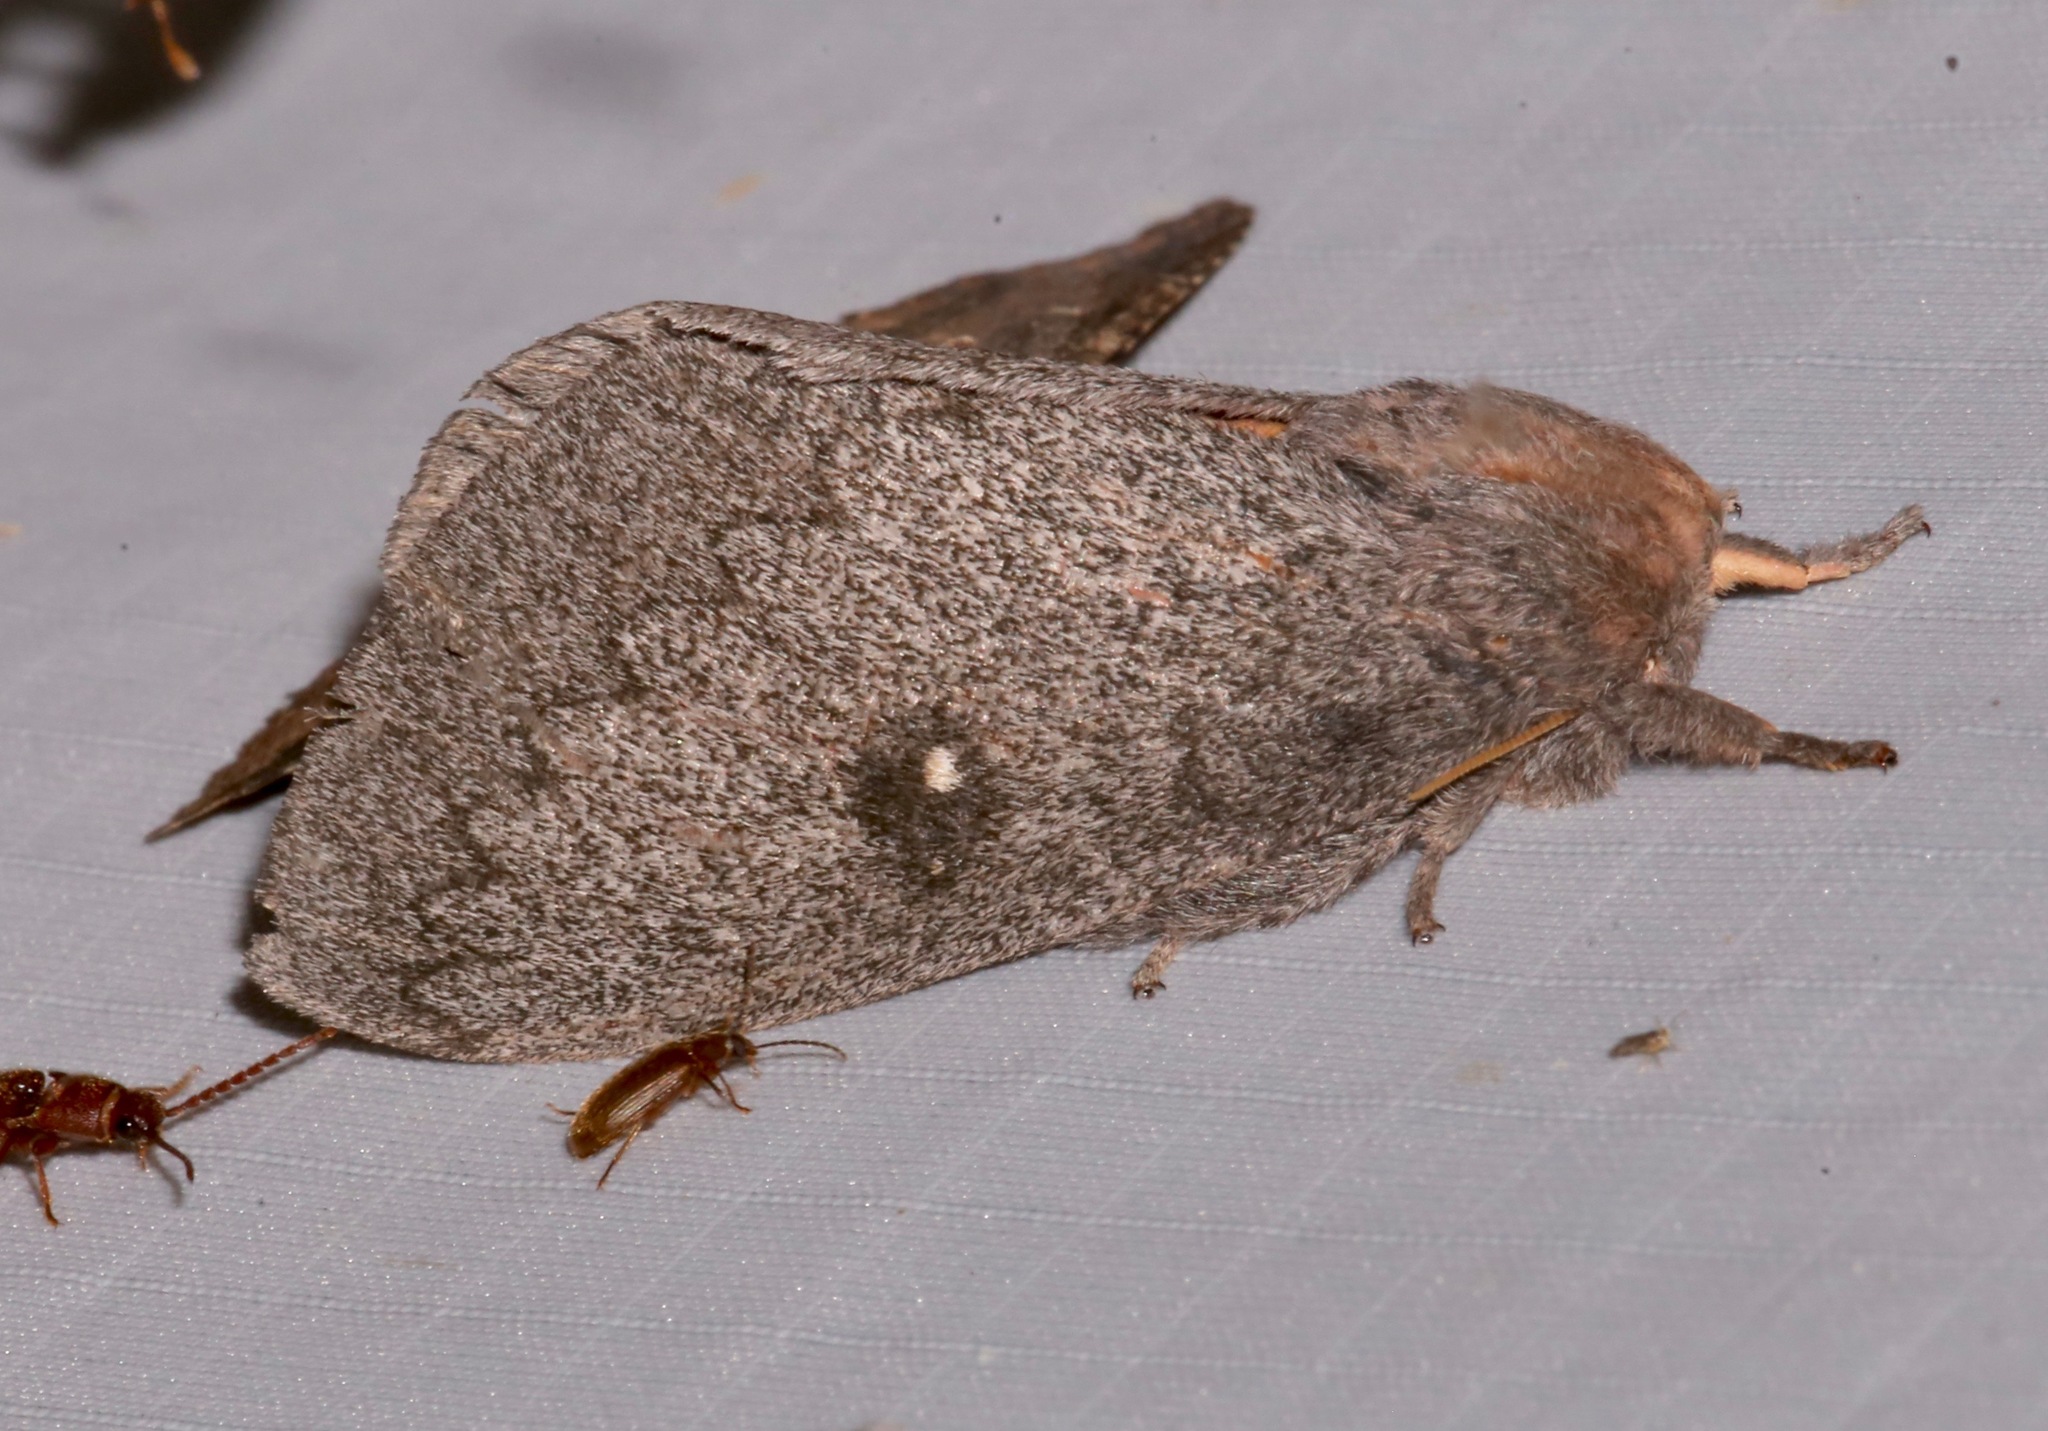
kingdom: Animalia
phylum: Arthropoda
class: Insecta
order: Lepidoptera
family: Saturniidae
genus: Syssphinx
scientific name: Syssphinx hubbardi
